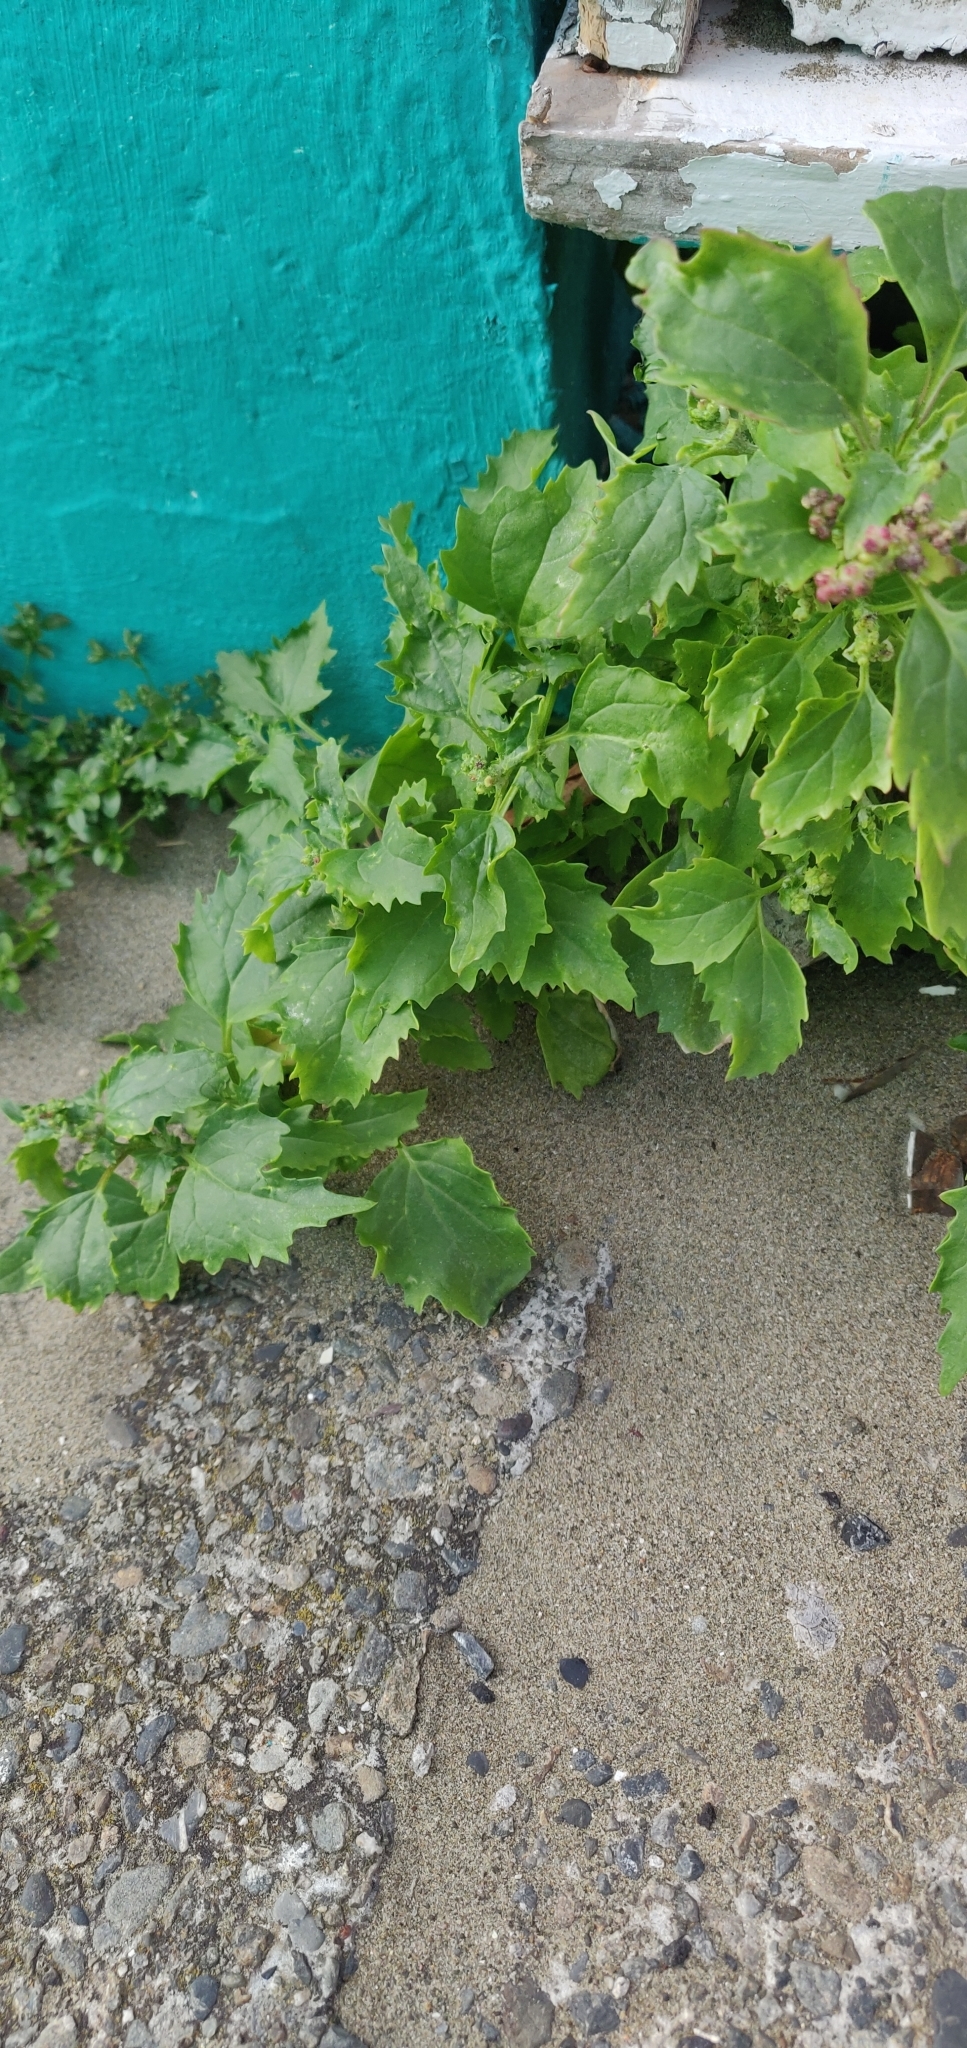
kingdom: Plantae
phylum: Tracheophyta
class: Magnoliopsida
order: Caryophyllales
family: Amaranthaceae
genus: Chenopodiastrum
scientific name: Chenopodiastrum murale
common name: Sowbane
